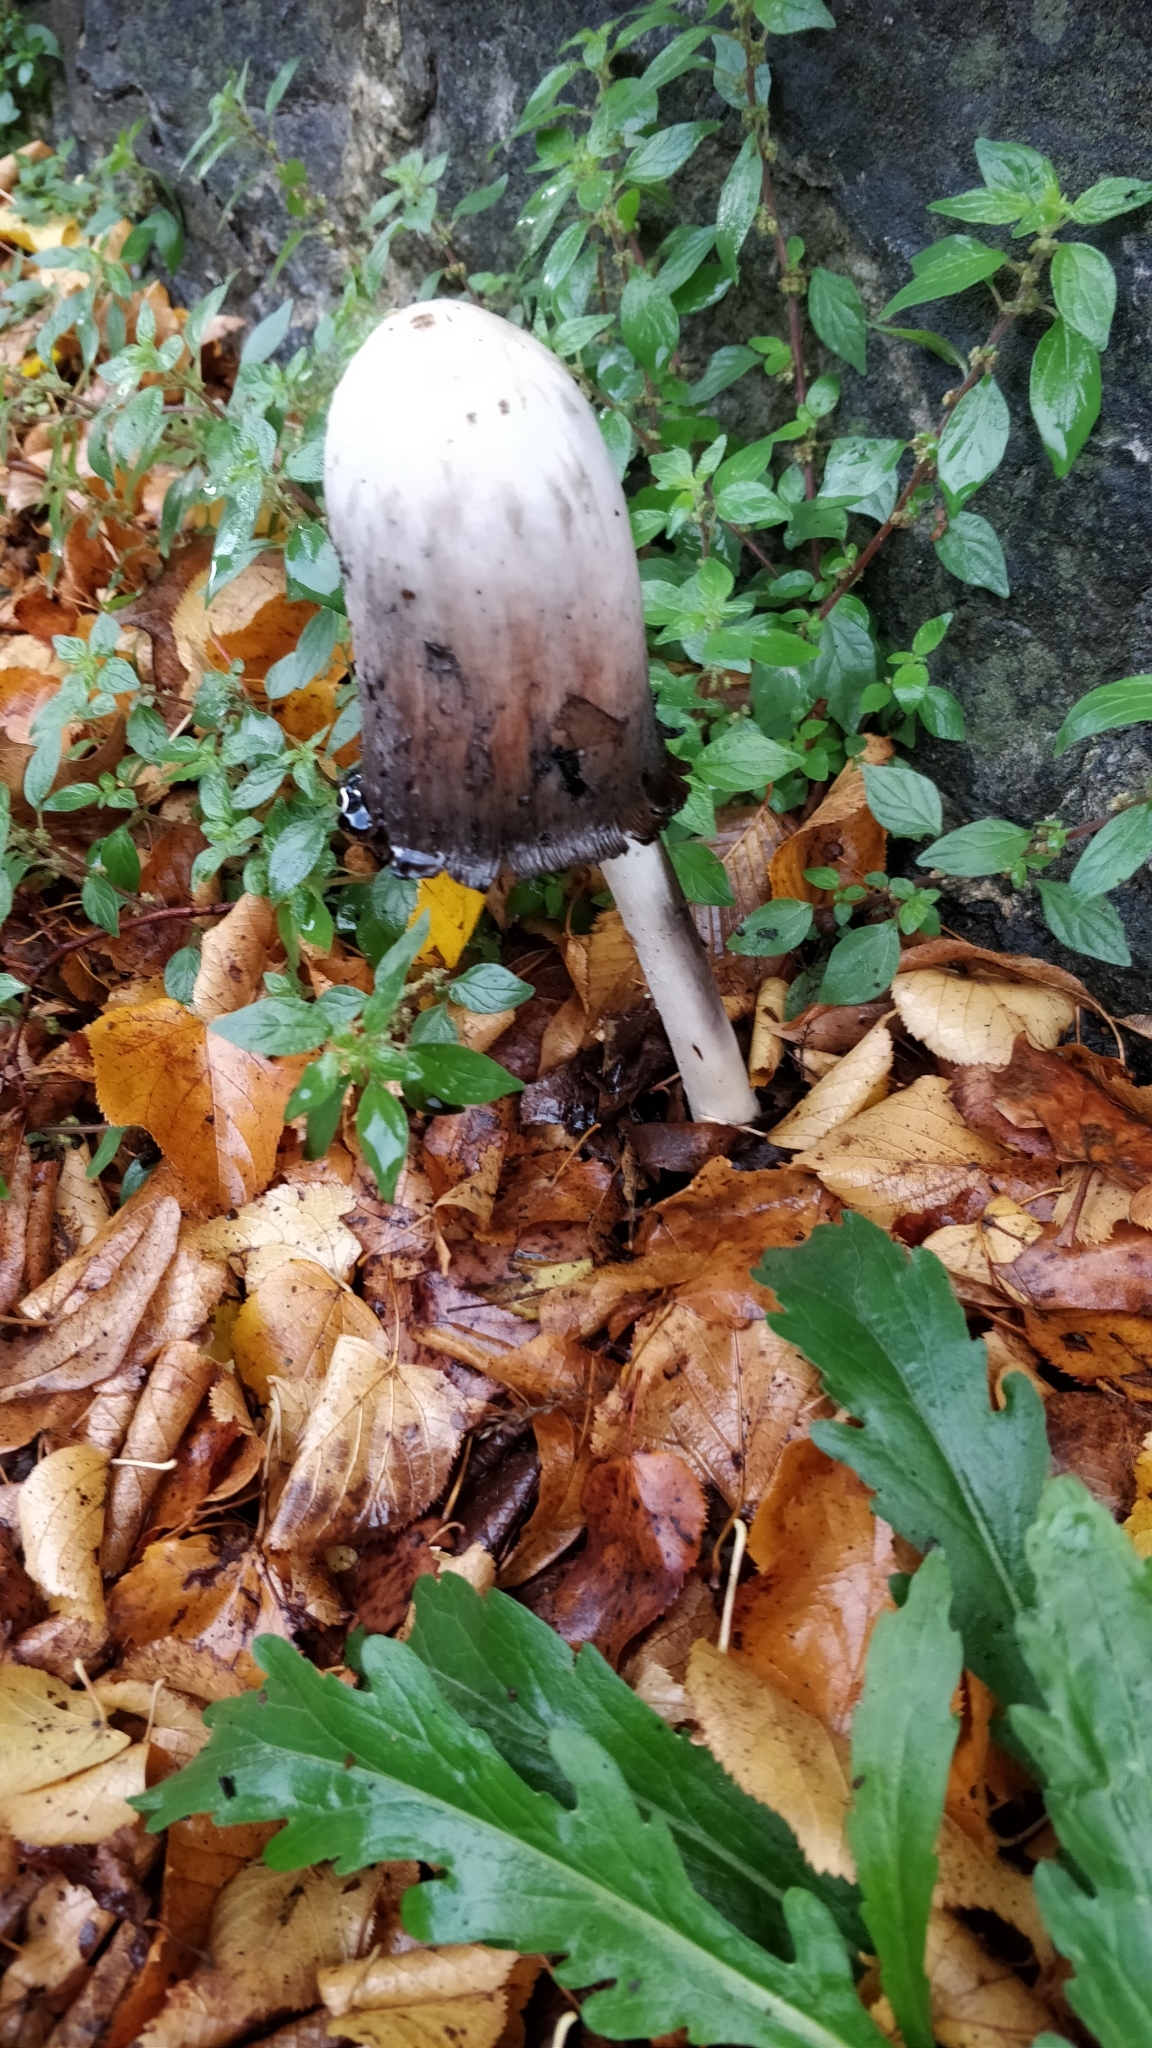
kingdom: Fungi
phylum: Basidiomycota
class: Agaricomycetes
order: Agaricales
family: Agaricaceae
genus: Coprinus
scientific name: Coprinus comatus
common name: Lawyer's wig
